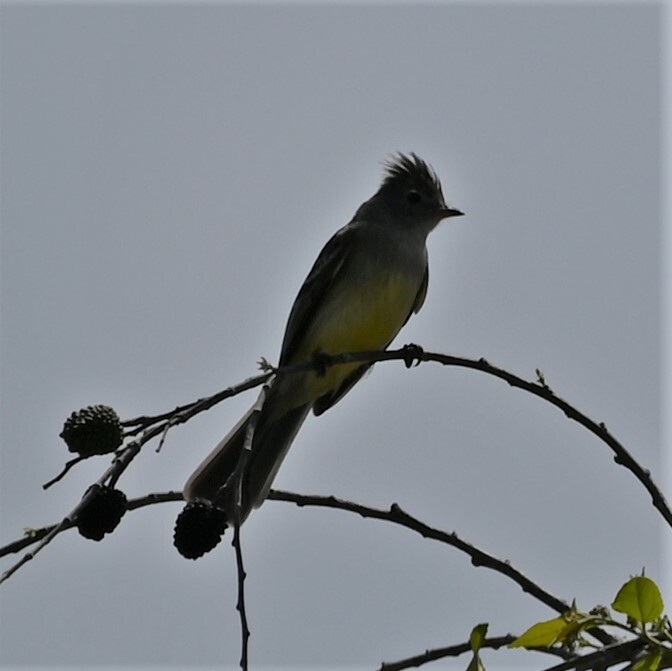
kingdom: Animalia
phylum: Chordata
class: Aves
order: Passeriformes
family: Tyrannidae
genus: Elaenia
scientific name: Elaenia flavogaster
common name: Yellow-bellied elaenia
